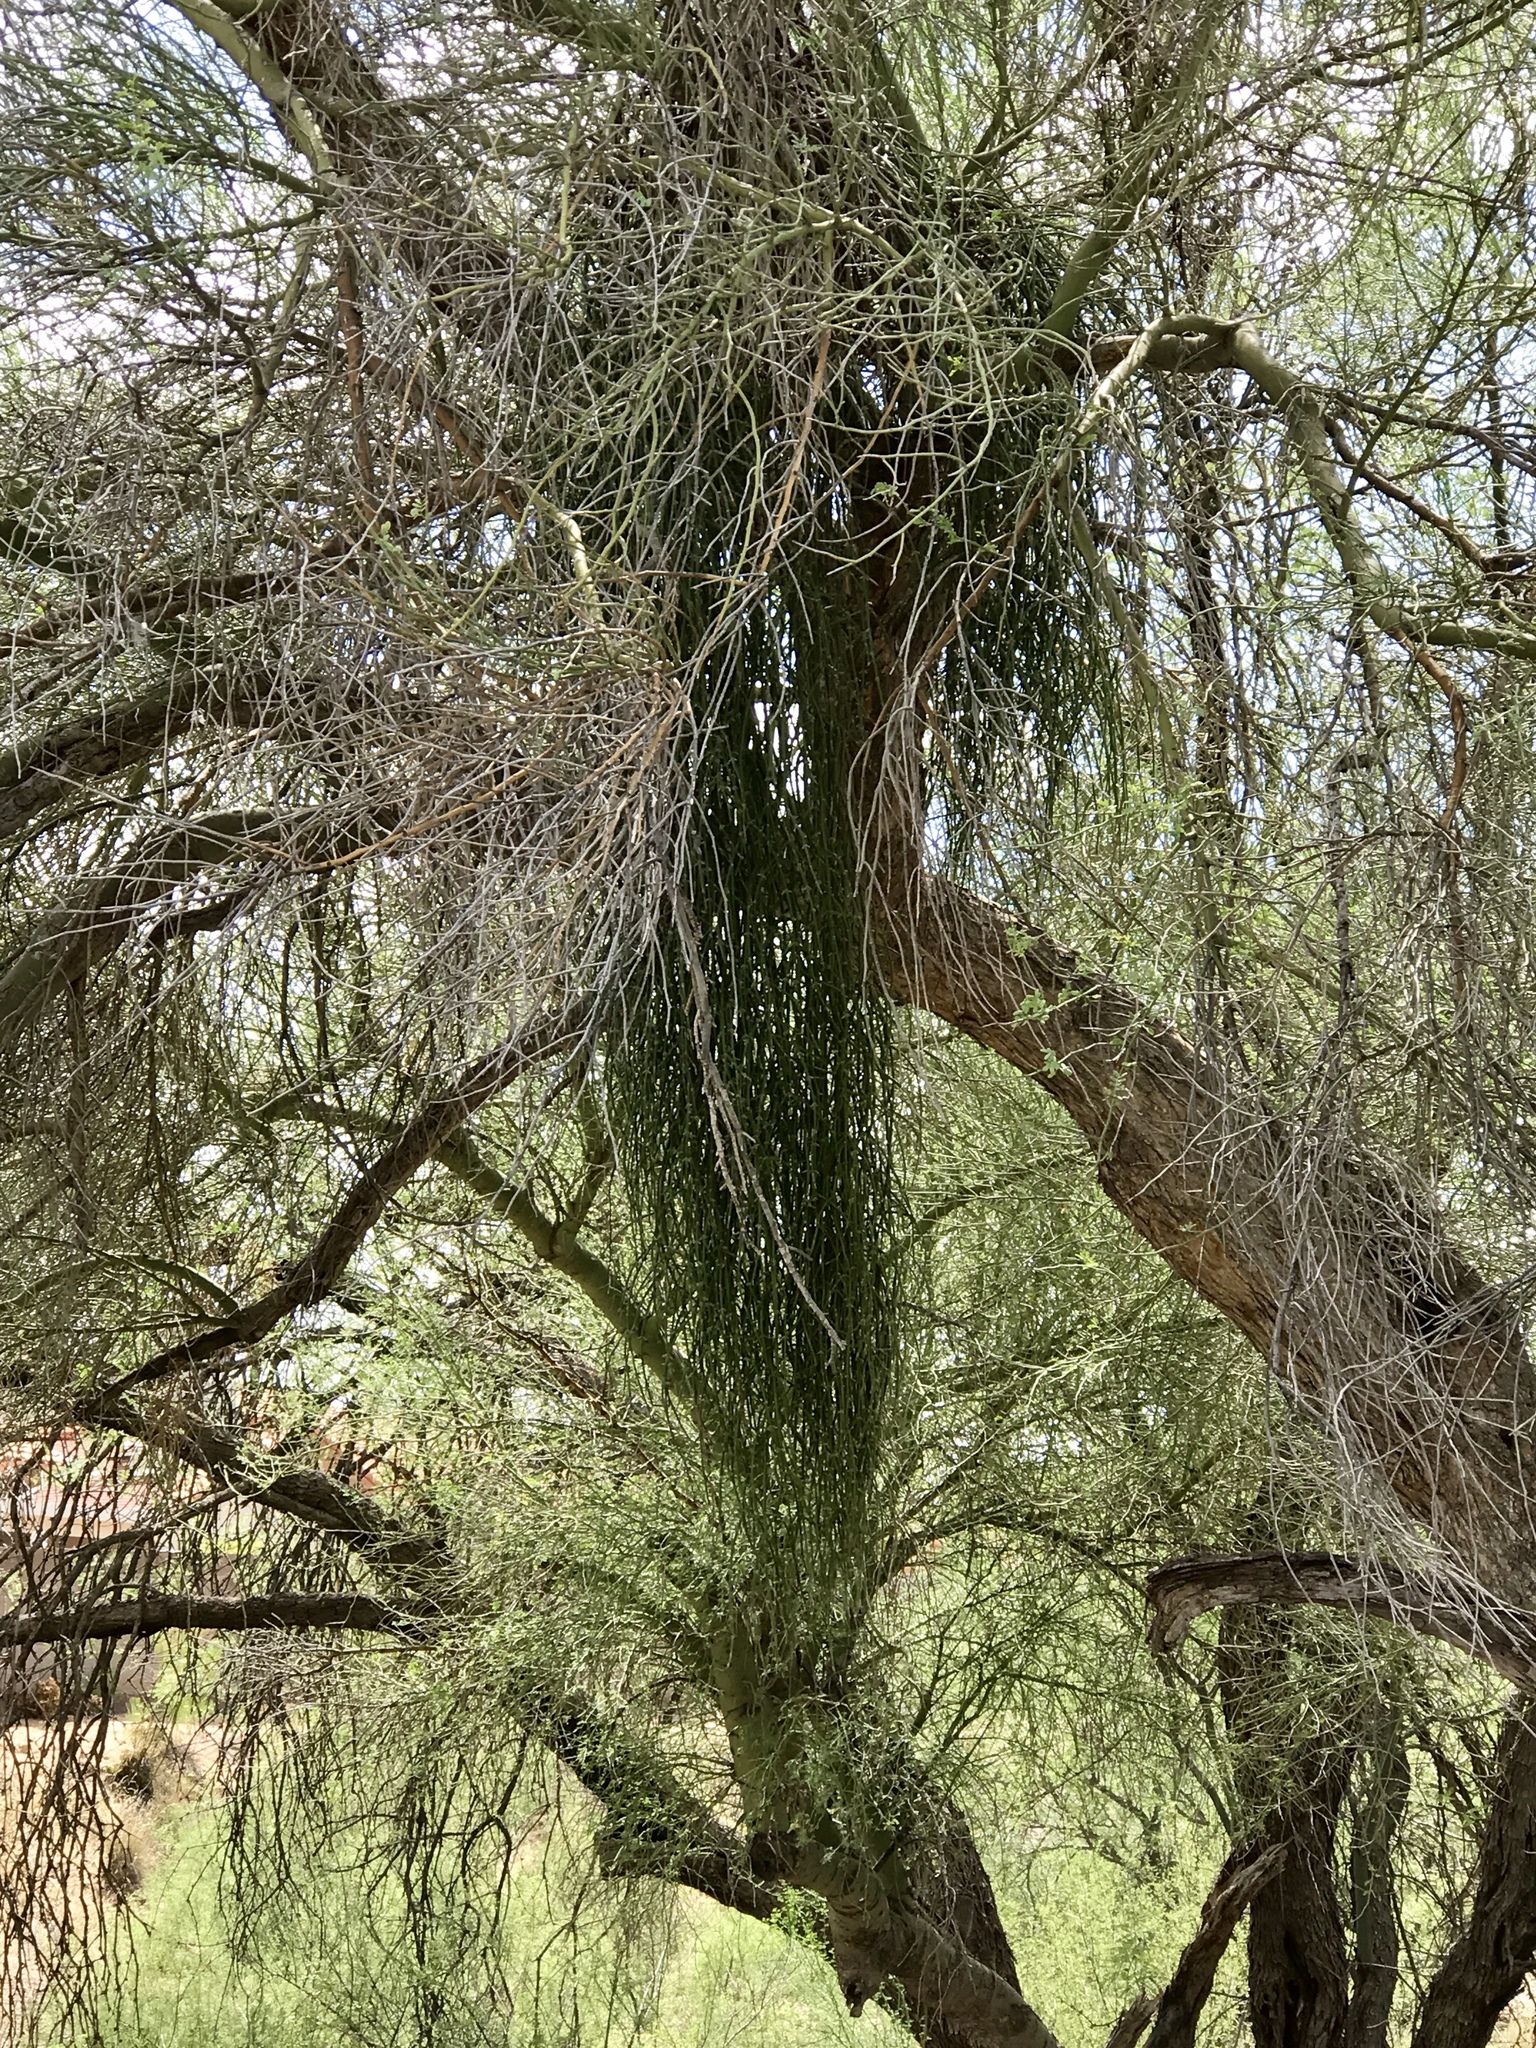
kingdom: Plantae
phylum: Tracheophyta
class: Magnoliopsida
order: Santalales
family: Viscaceae
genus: Phoradendron
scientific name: Phoradendron californicum
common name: Acacia mistletoe
